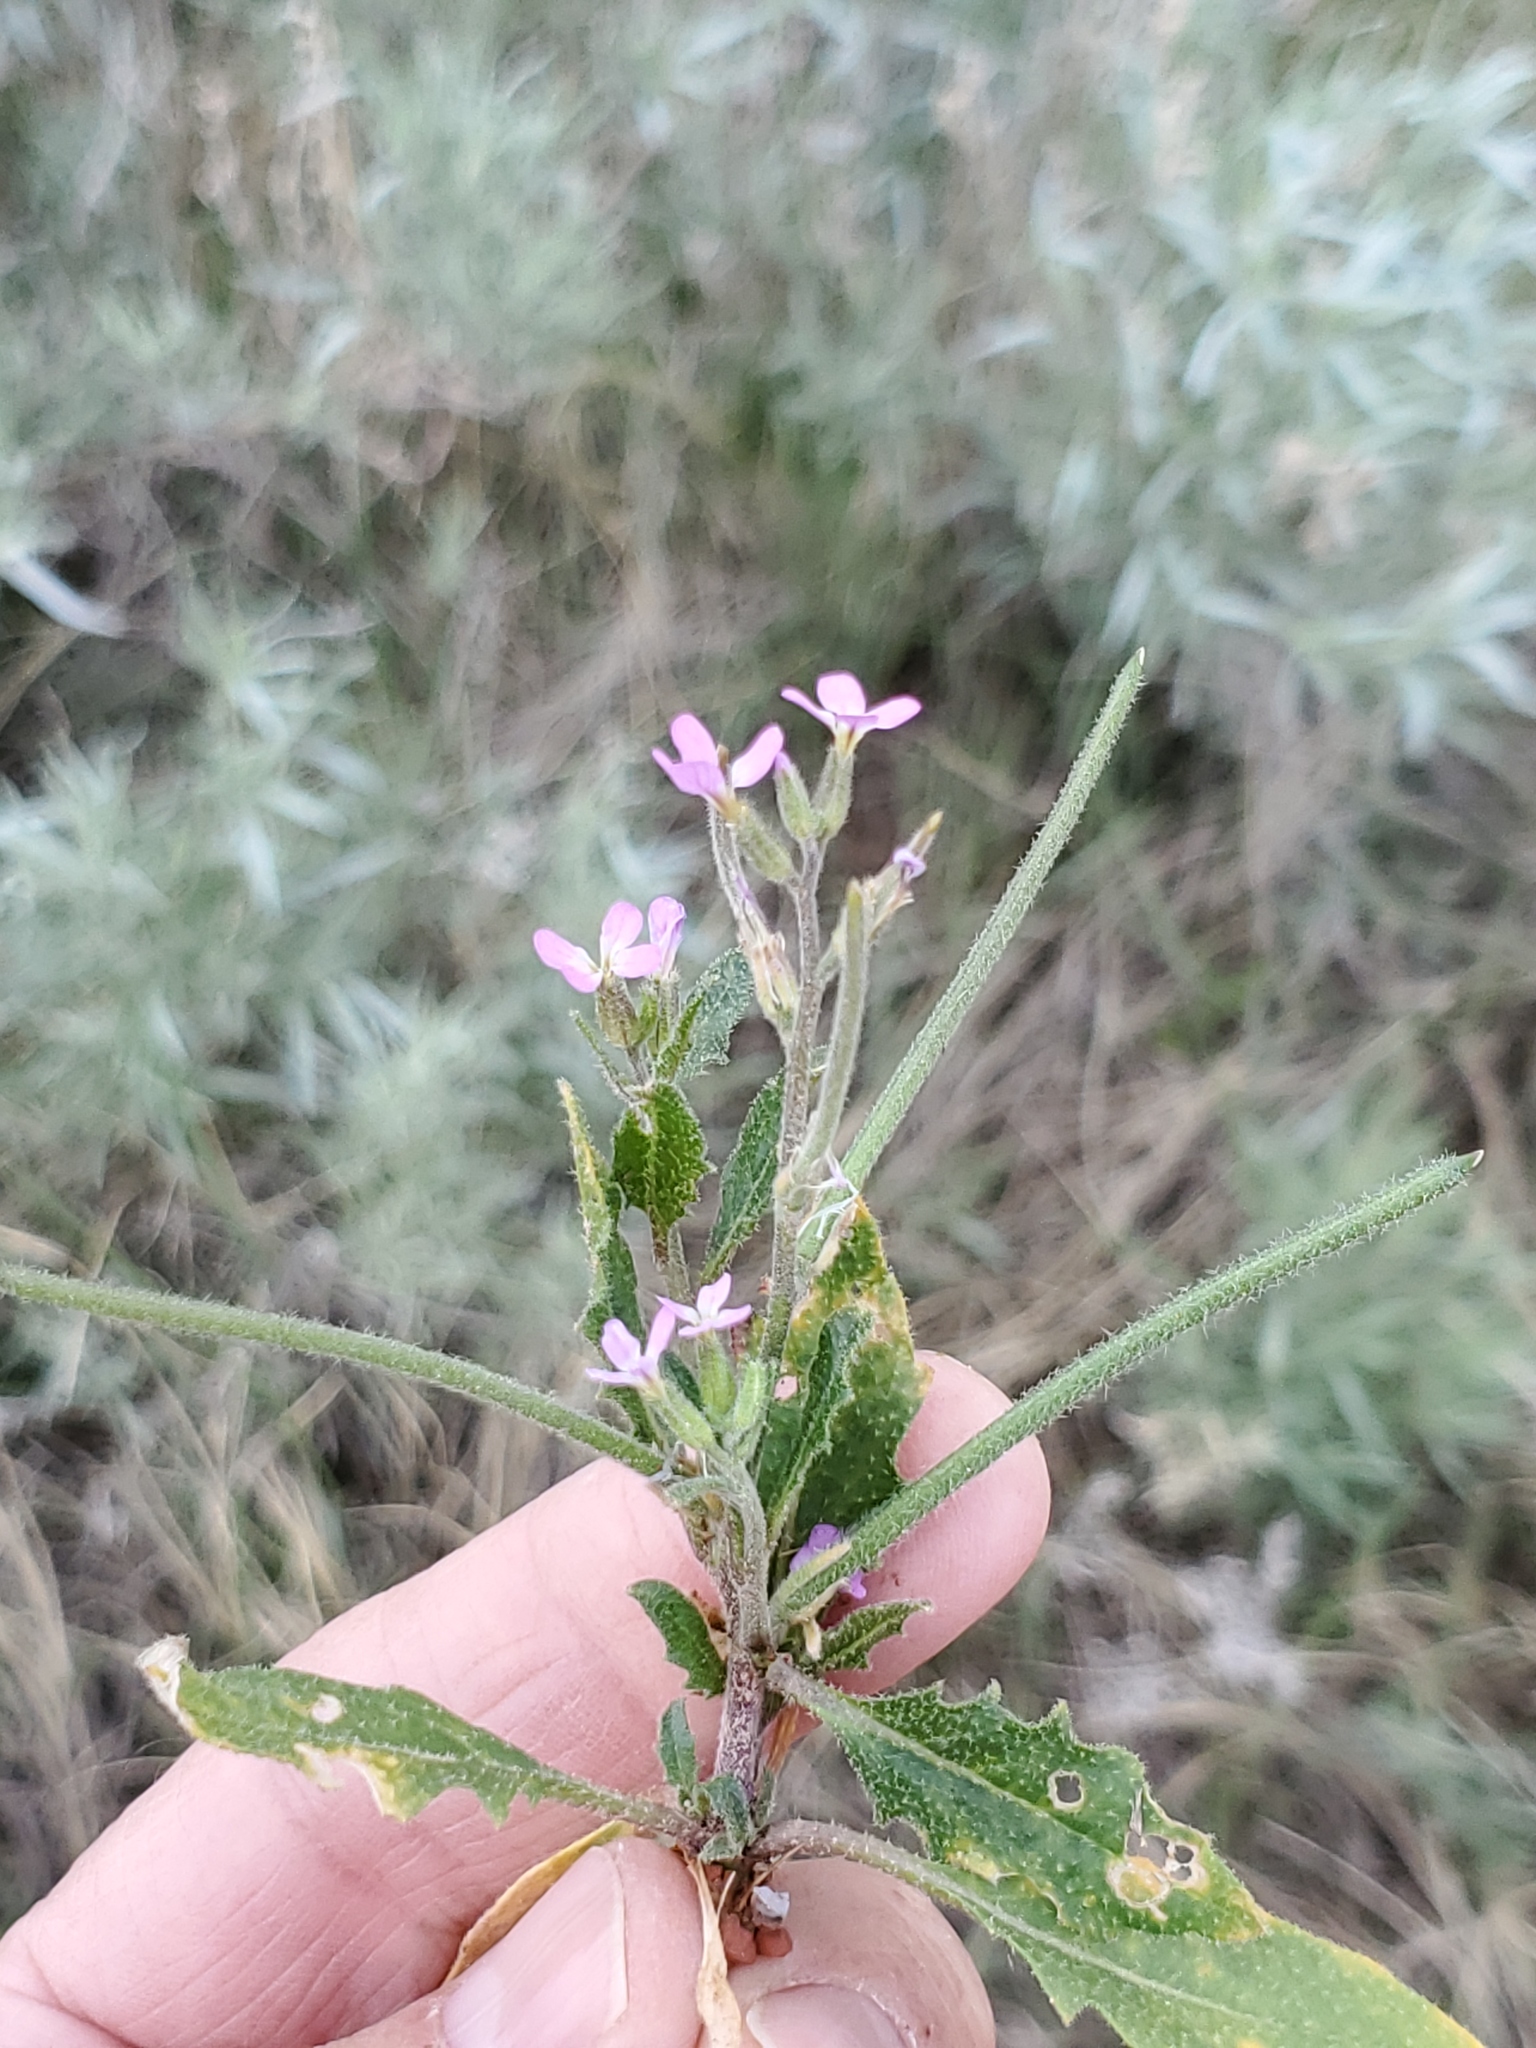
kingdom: Plantae
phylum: Tracheophyta
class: Magnoliopsida
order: Brassicales
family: Brassicaceae
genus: Strigosella
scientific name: Strigosella africana
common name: African mustard
